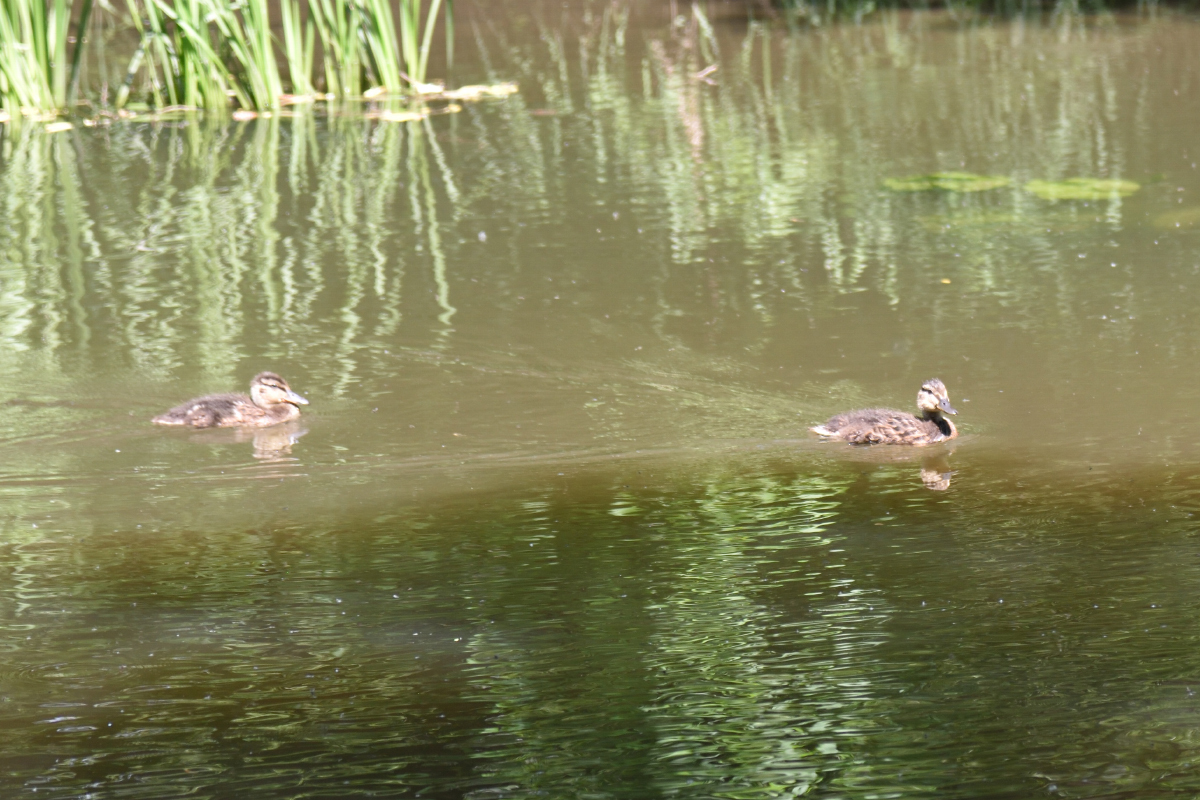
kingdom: Animalia
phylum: Chordata
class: Aves
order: Anseriformes
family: Anatidae
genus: Anas
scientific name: Anas platyrhynchos
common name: Mallard
